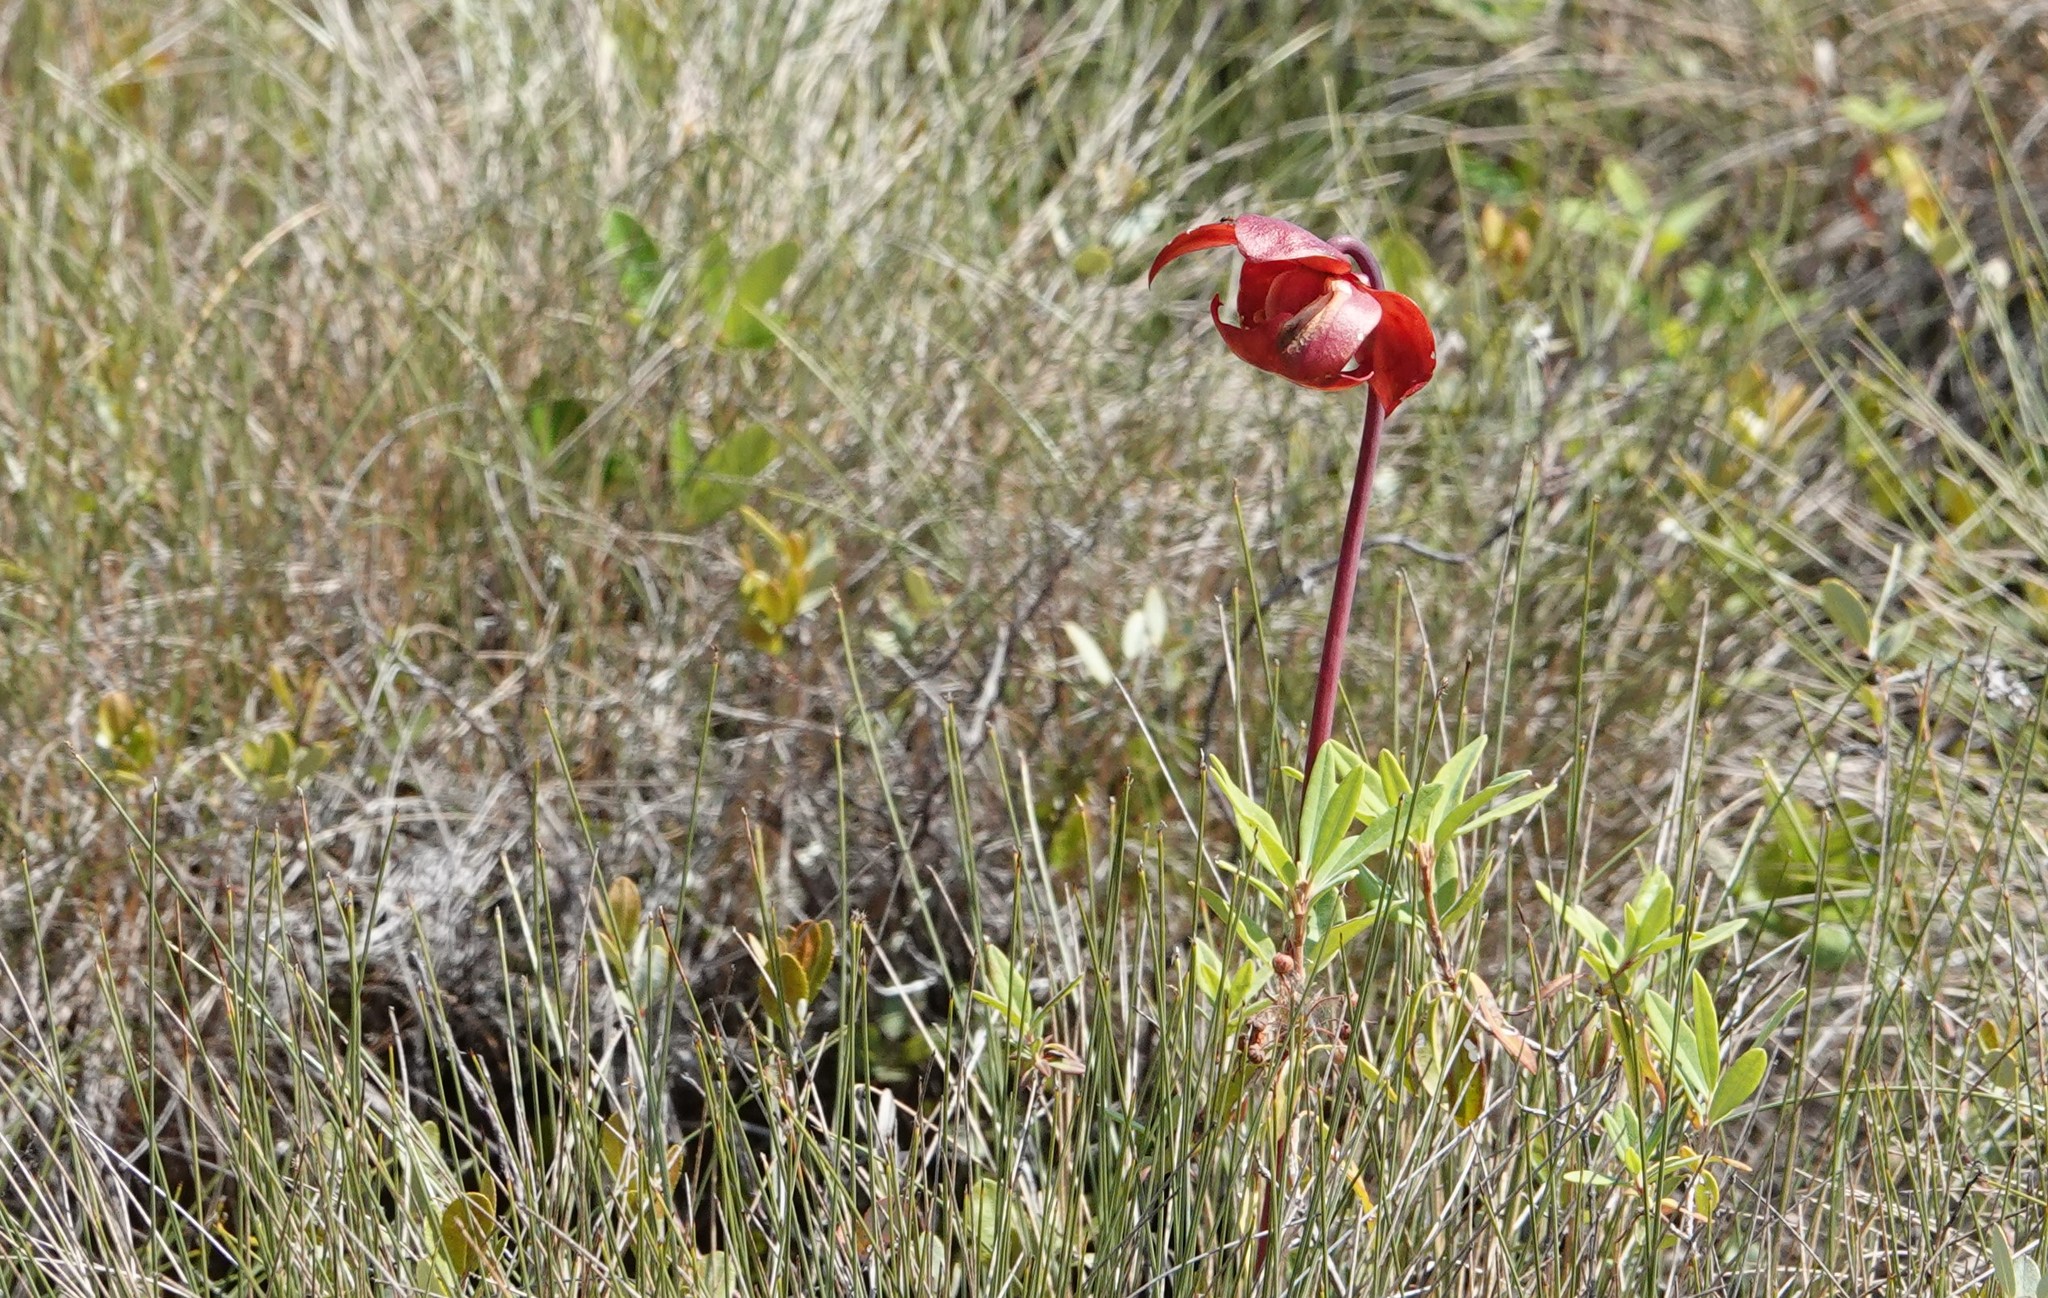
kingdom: Plantae
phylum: Tracheophyta
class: Magnoliopsida
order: Ericales
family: Sarraceniaceae
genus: Sarracenia
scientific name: Sarracenia purpurea
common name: Pitcherplant
